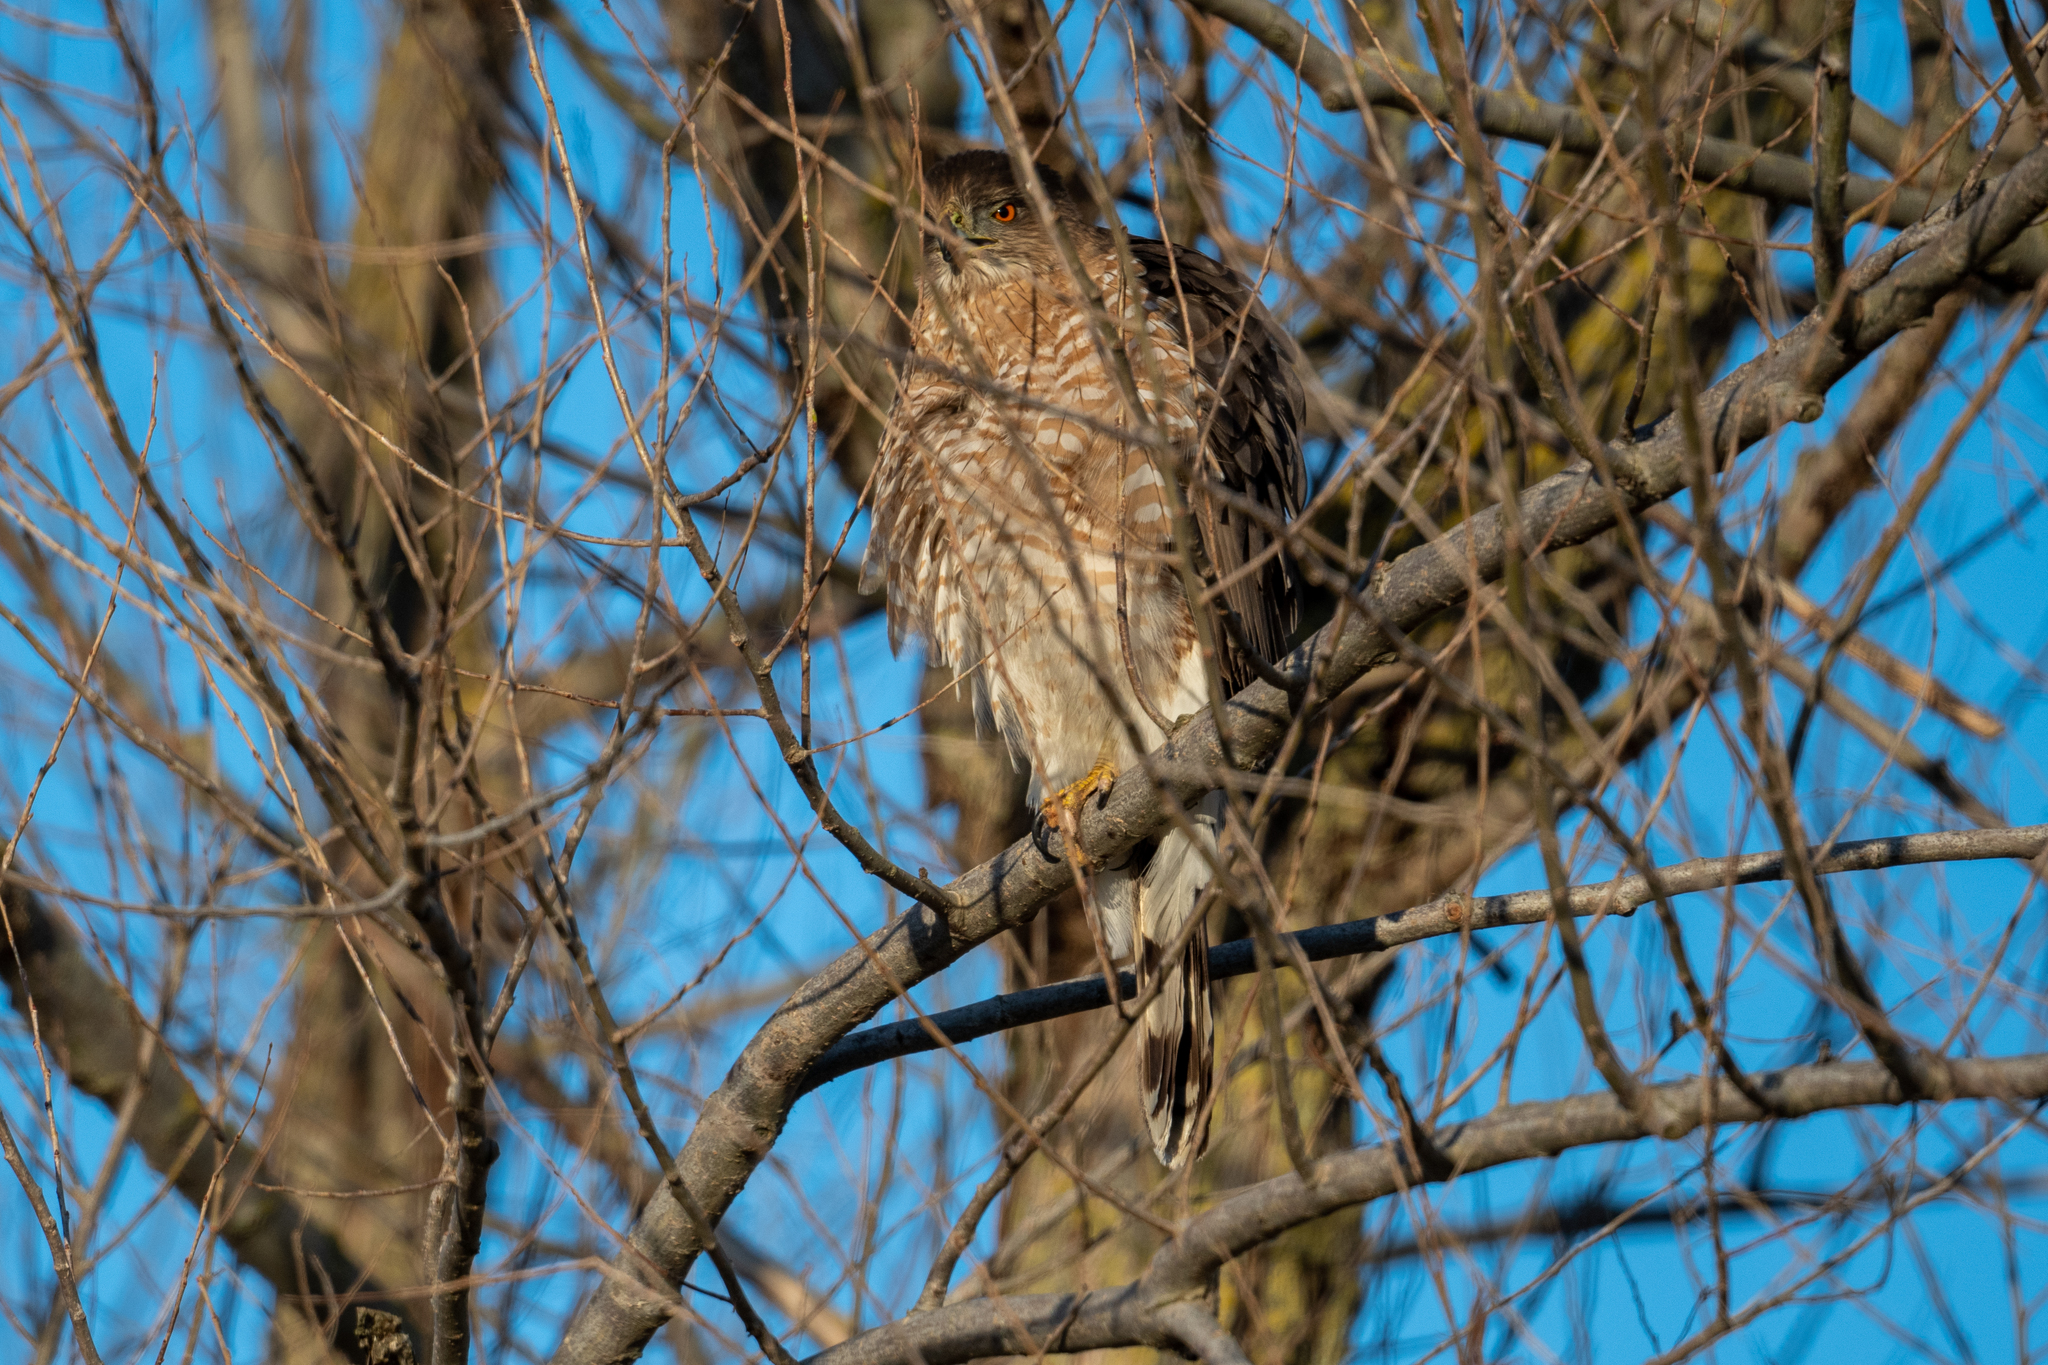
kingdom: Animalia
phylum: Chordata
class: Aves
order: Accipitriformes
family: Accipitridae
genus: Accipiter
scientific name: Accipiter cooperii
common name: Cooper's hawk
